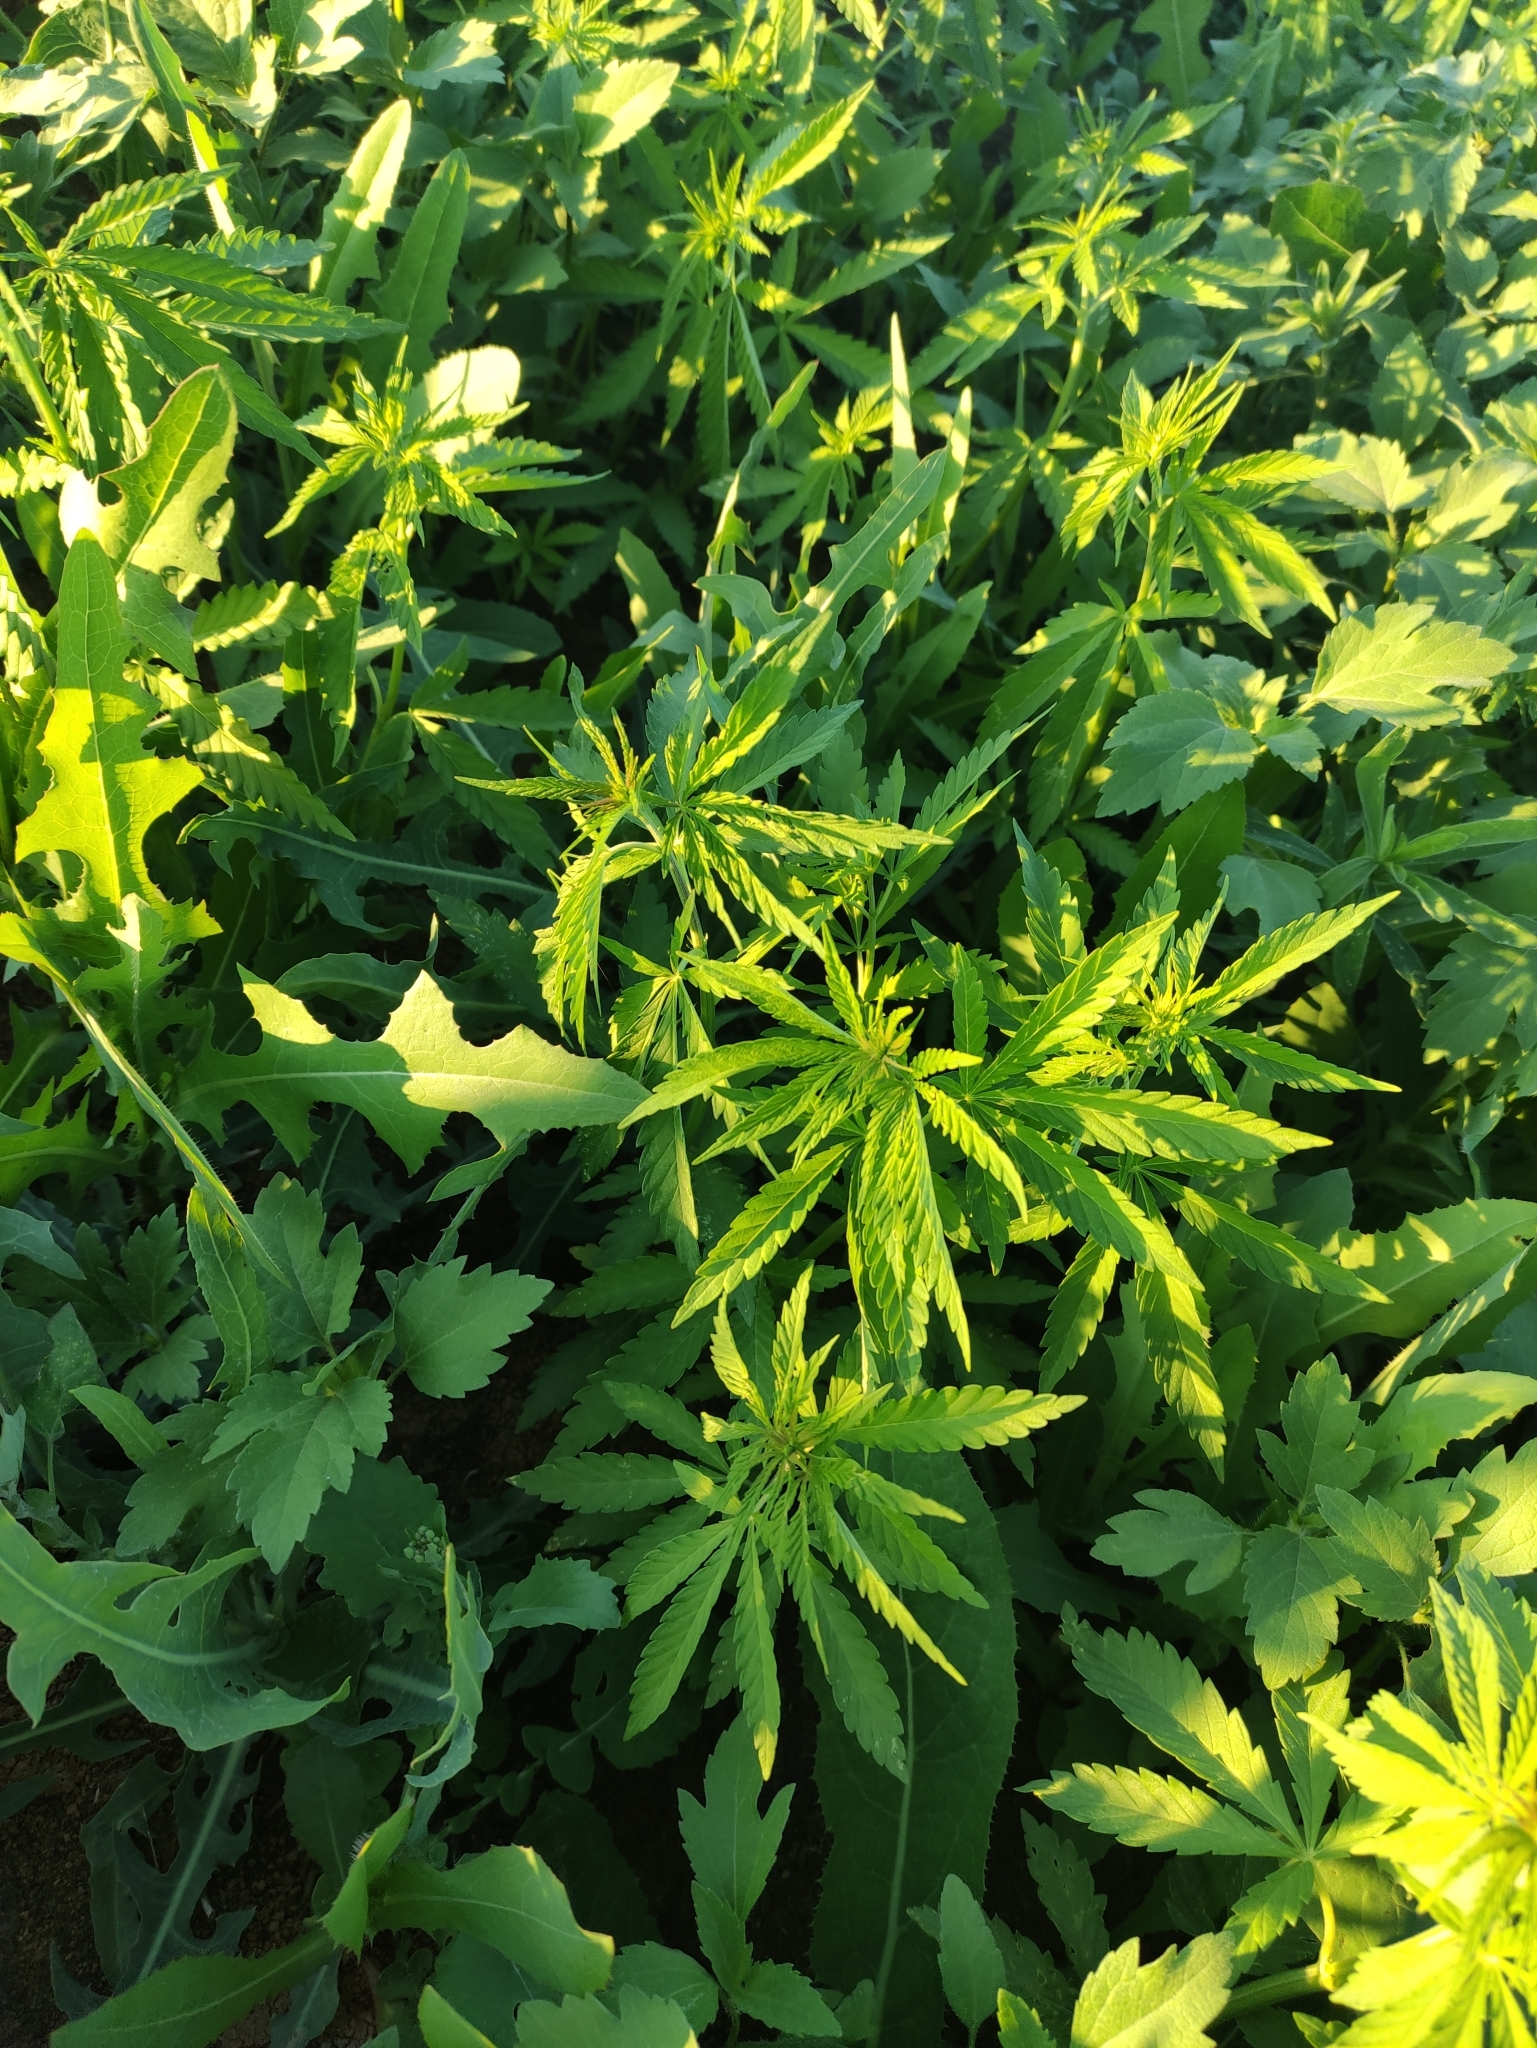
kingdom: Plantae
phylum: Tracheophyta
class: Magnoliopsida
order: Rosales
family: Cannabaceae
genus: Cannabis
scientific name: Cannabis sativa
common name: Hemp
